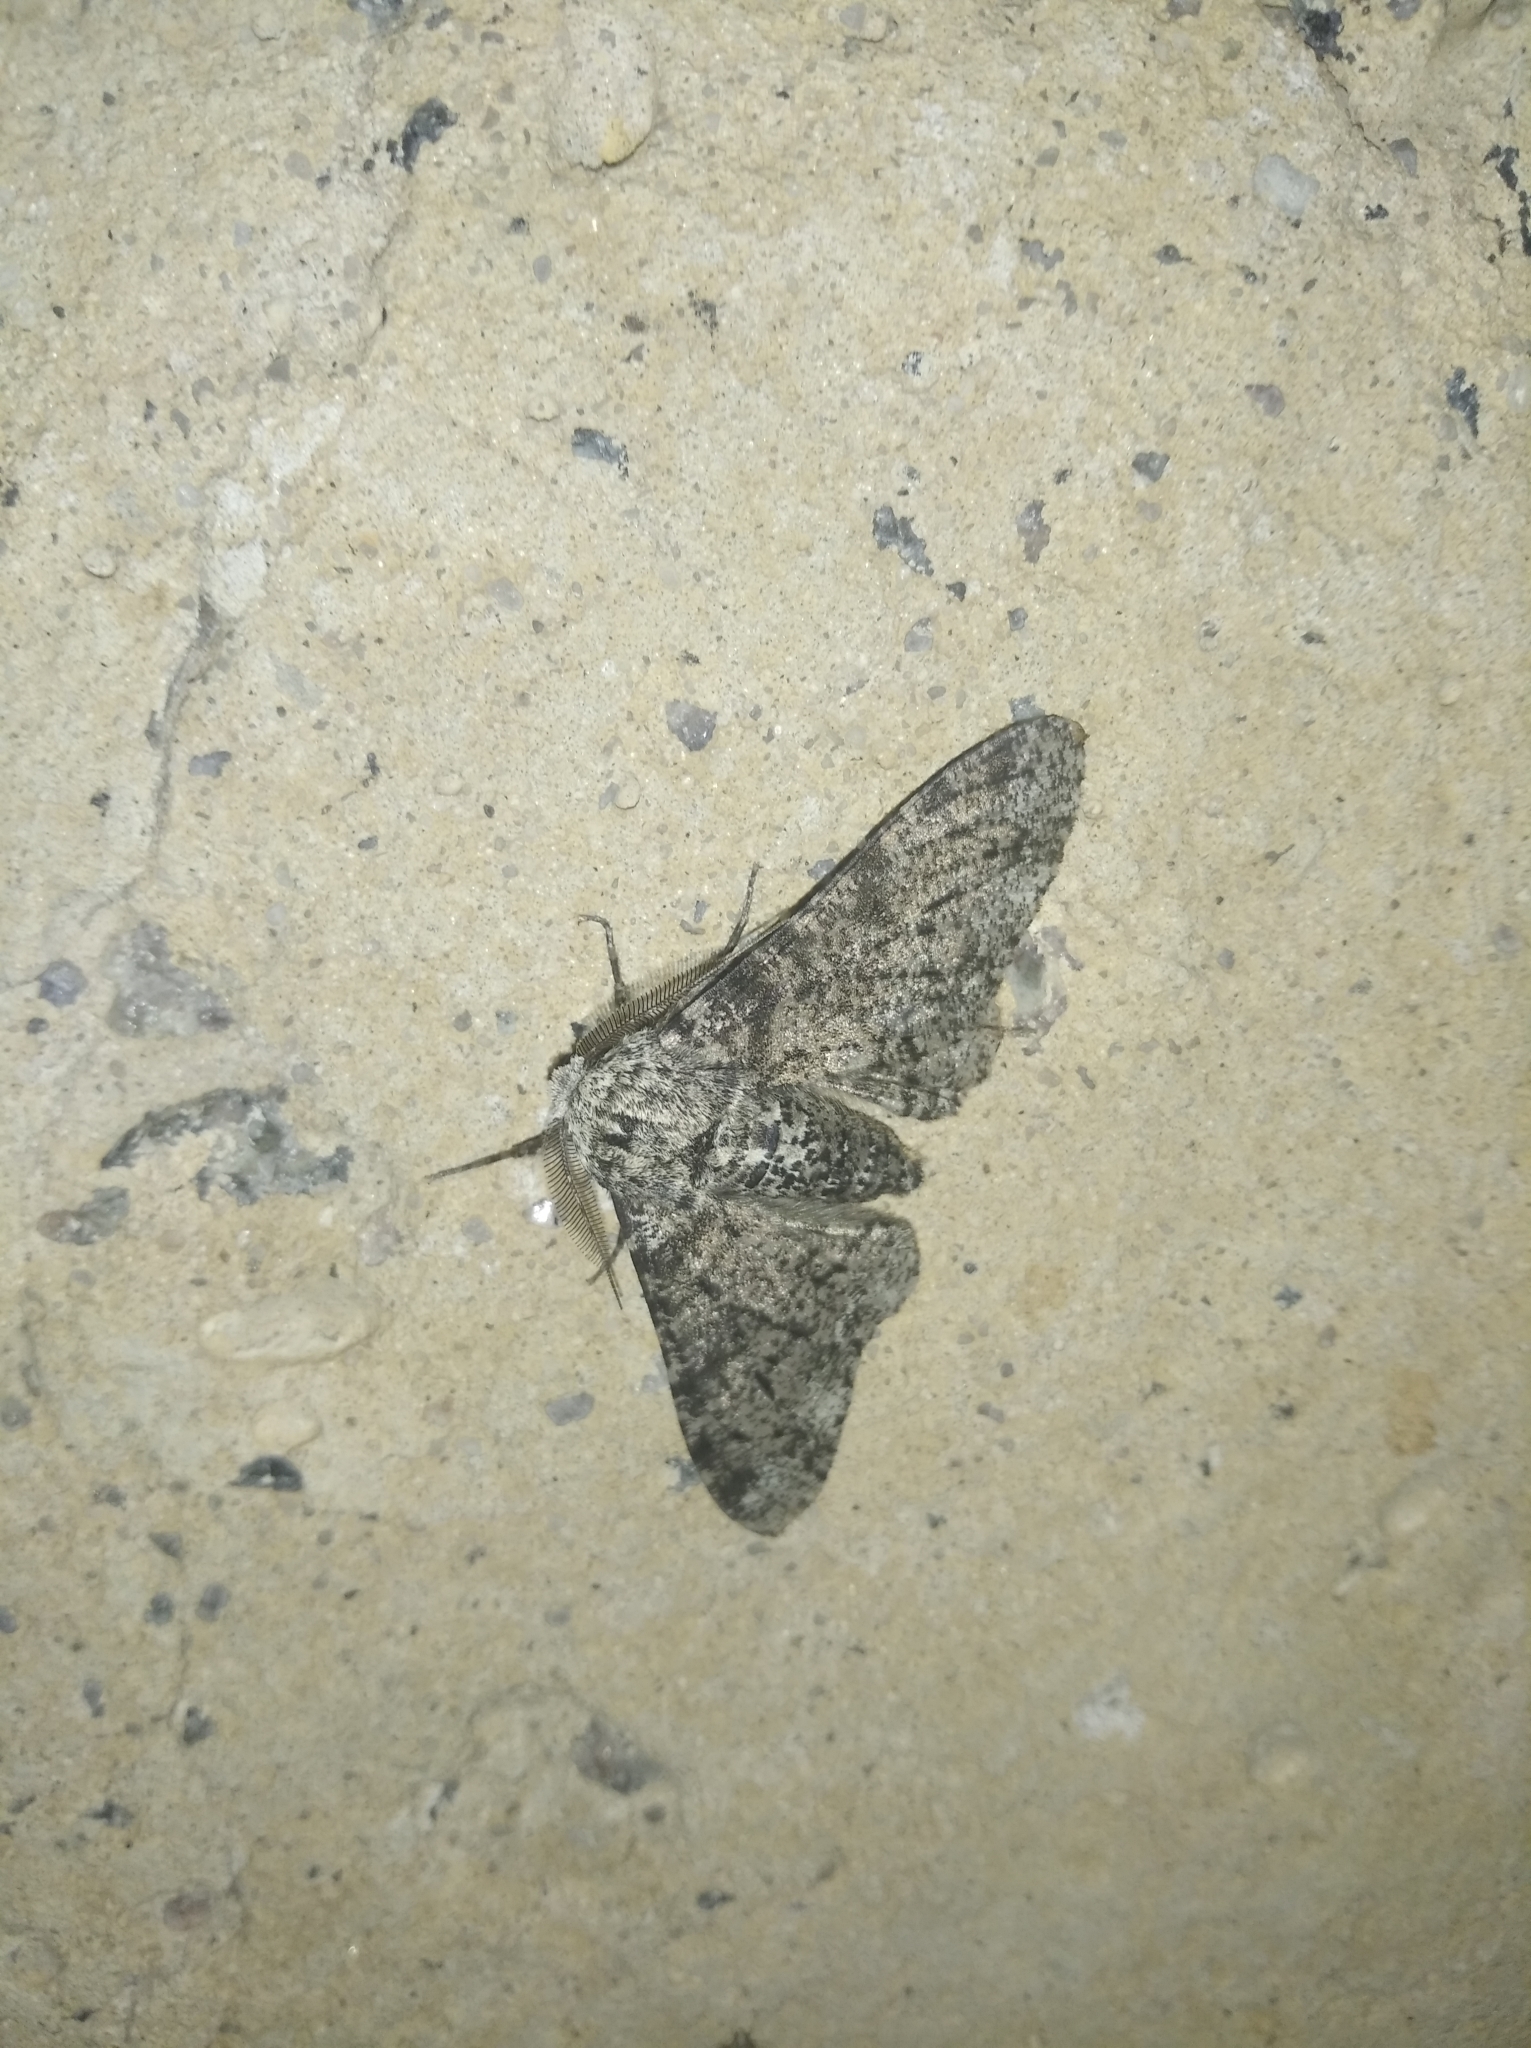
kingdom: Animalia
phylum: Arthropoda
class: Insecta
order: Lepidoptera
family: Geometridae
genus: Biston
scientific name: Biston betularia
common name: Peppered moth
